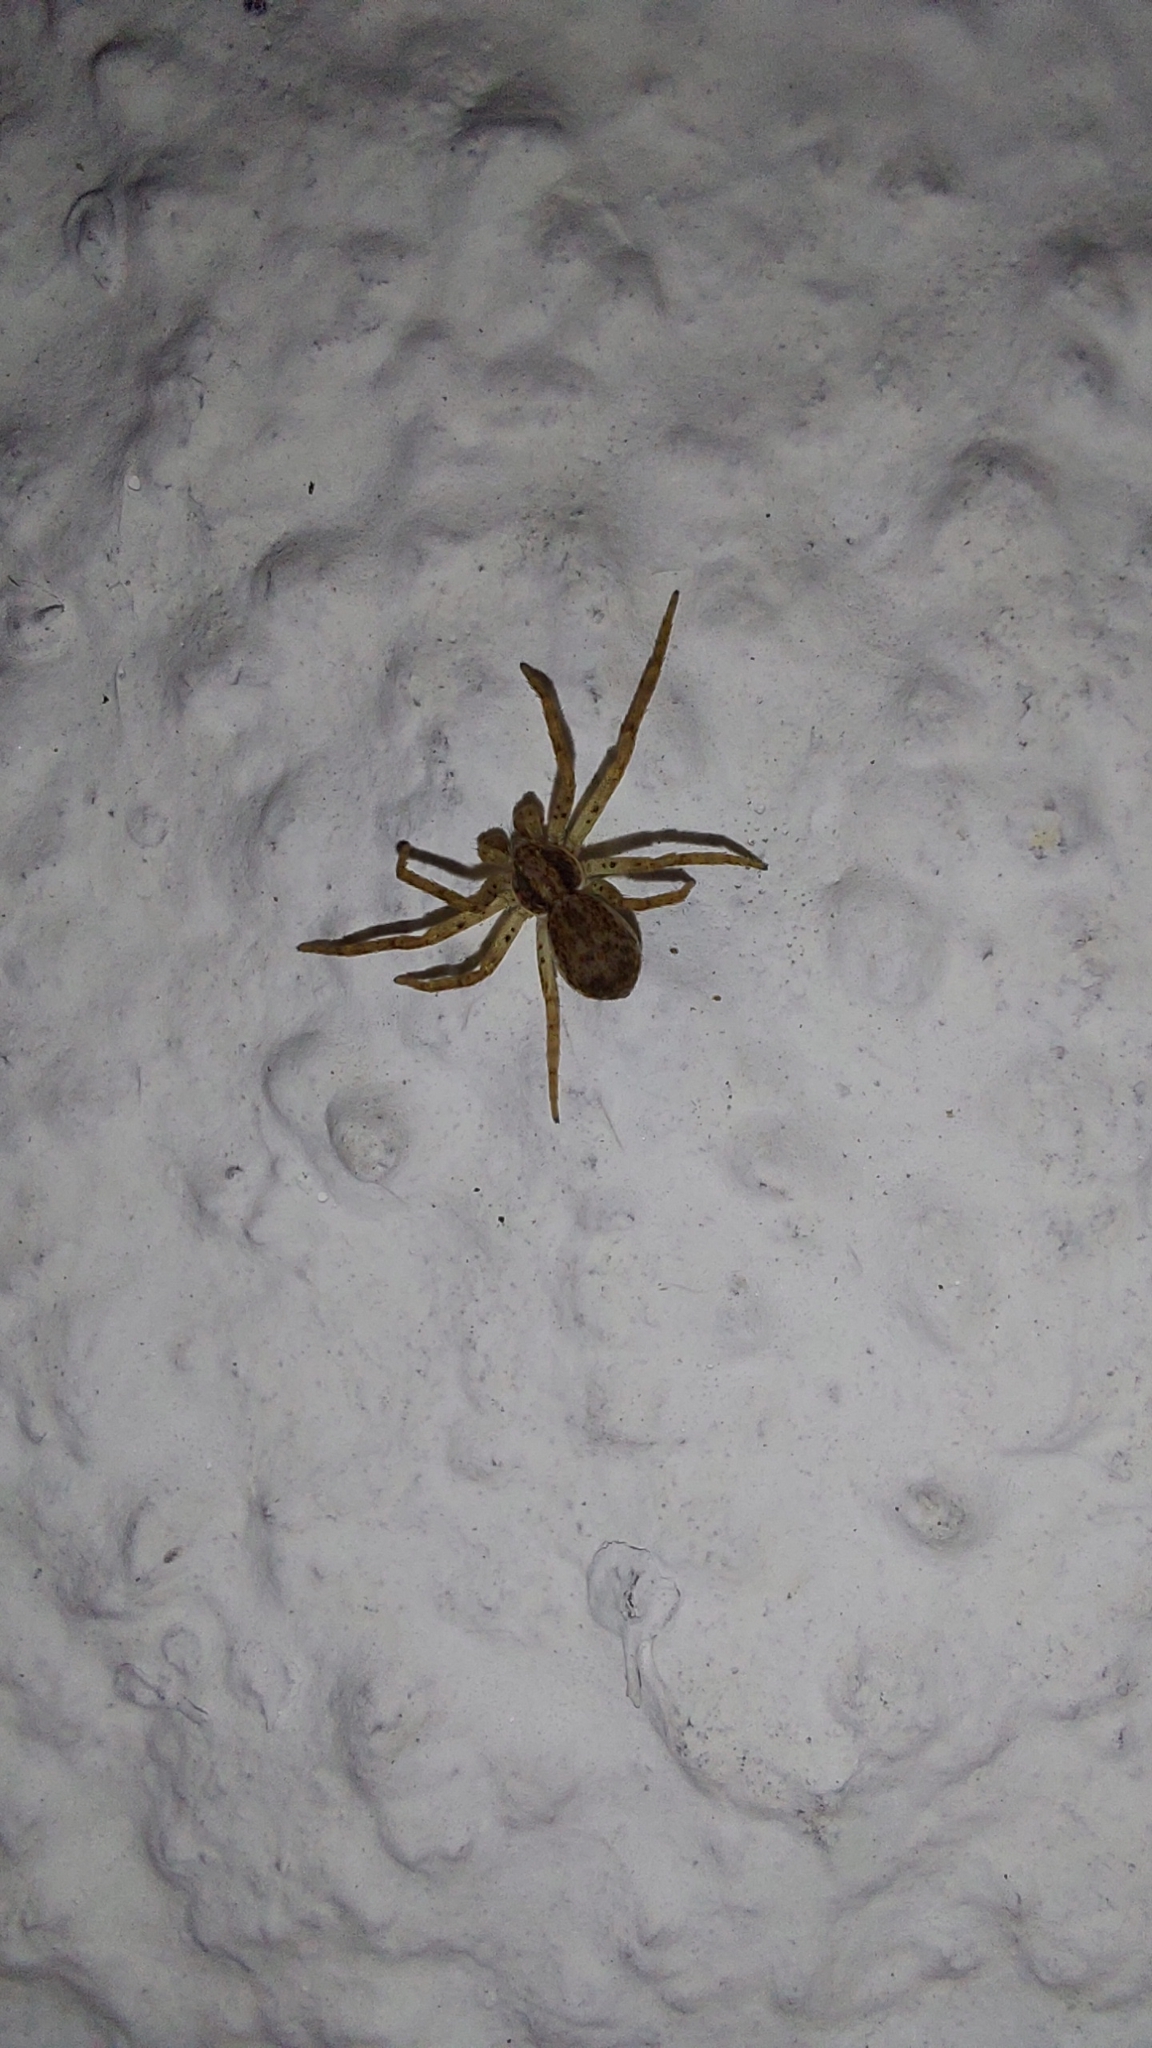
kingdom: Animalia
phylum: Arthropoda
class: Arachnida
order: Araneae
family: Philodromidae
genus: Philodromus
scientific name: Philodromus dispar
